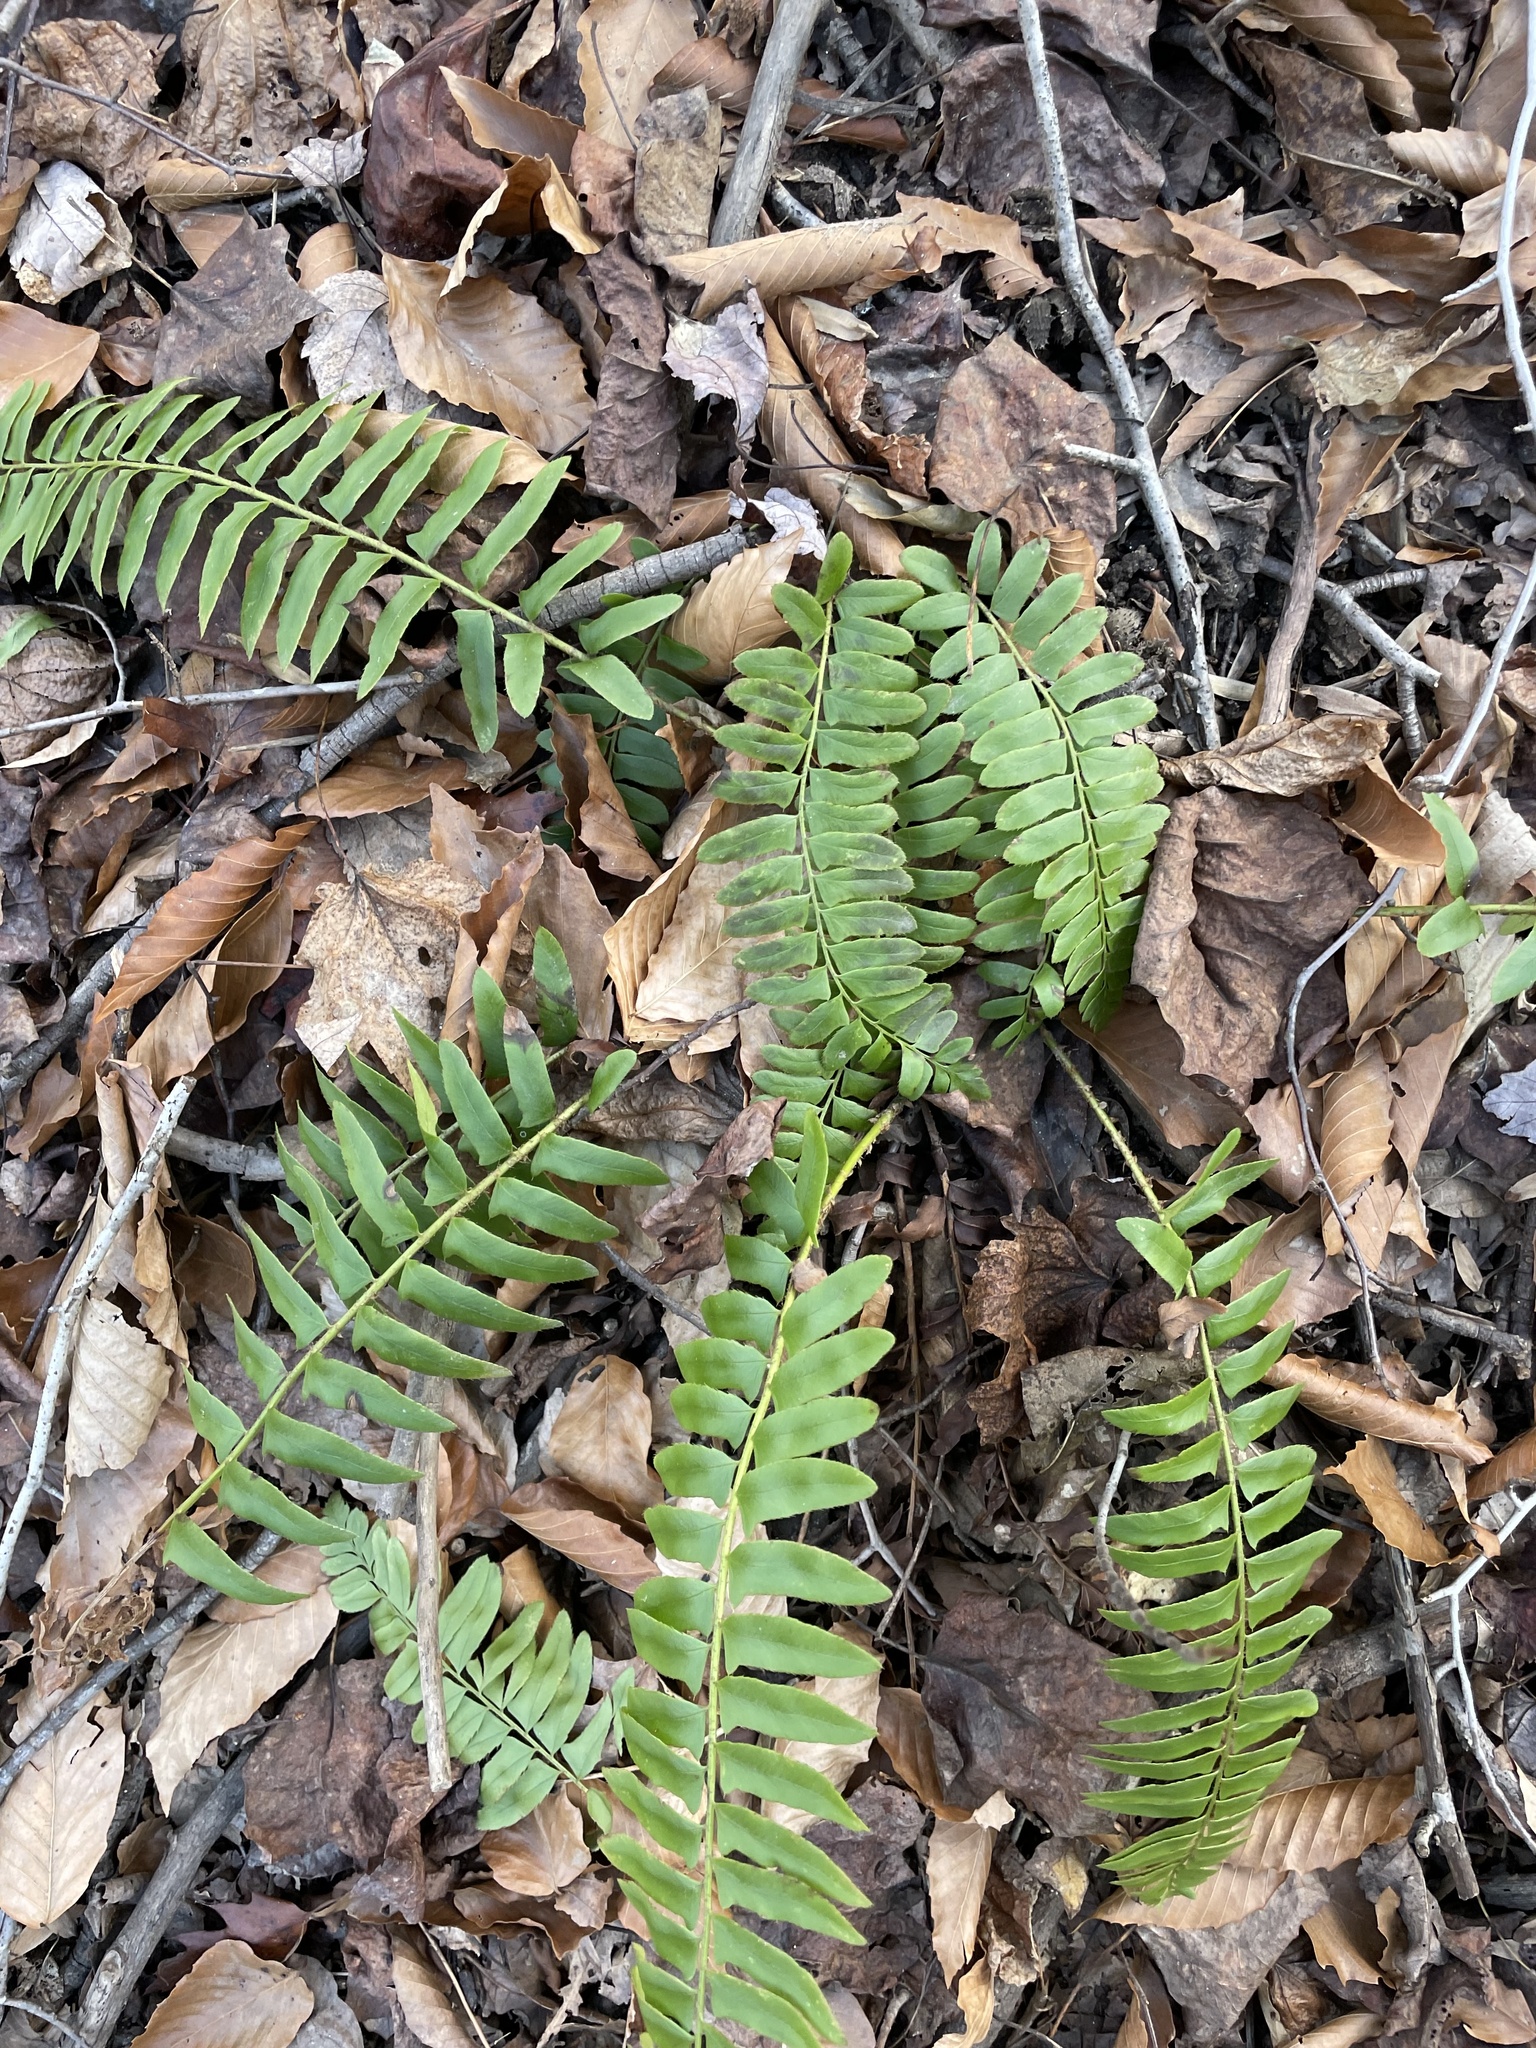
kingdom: Plantae
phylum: Tracheophyta
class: Polypodiopsida
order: Polypodiales
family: Dryopteridaceae
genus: Polystichum
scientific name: Polystichum acrostichoides
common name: Christmas fern
